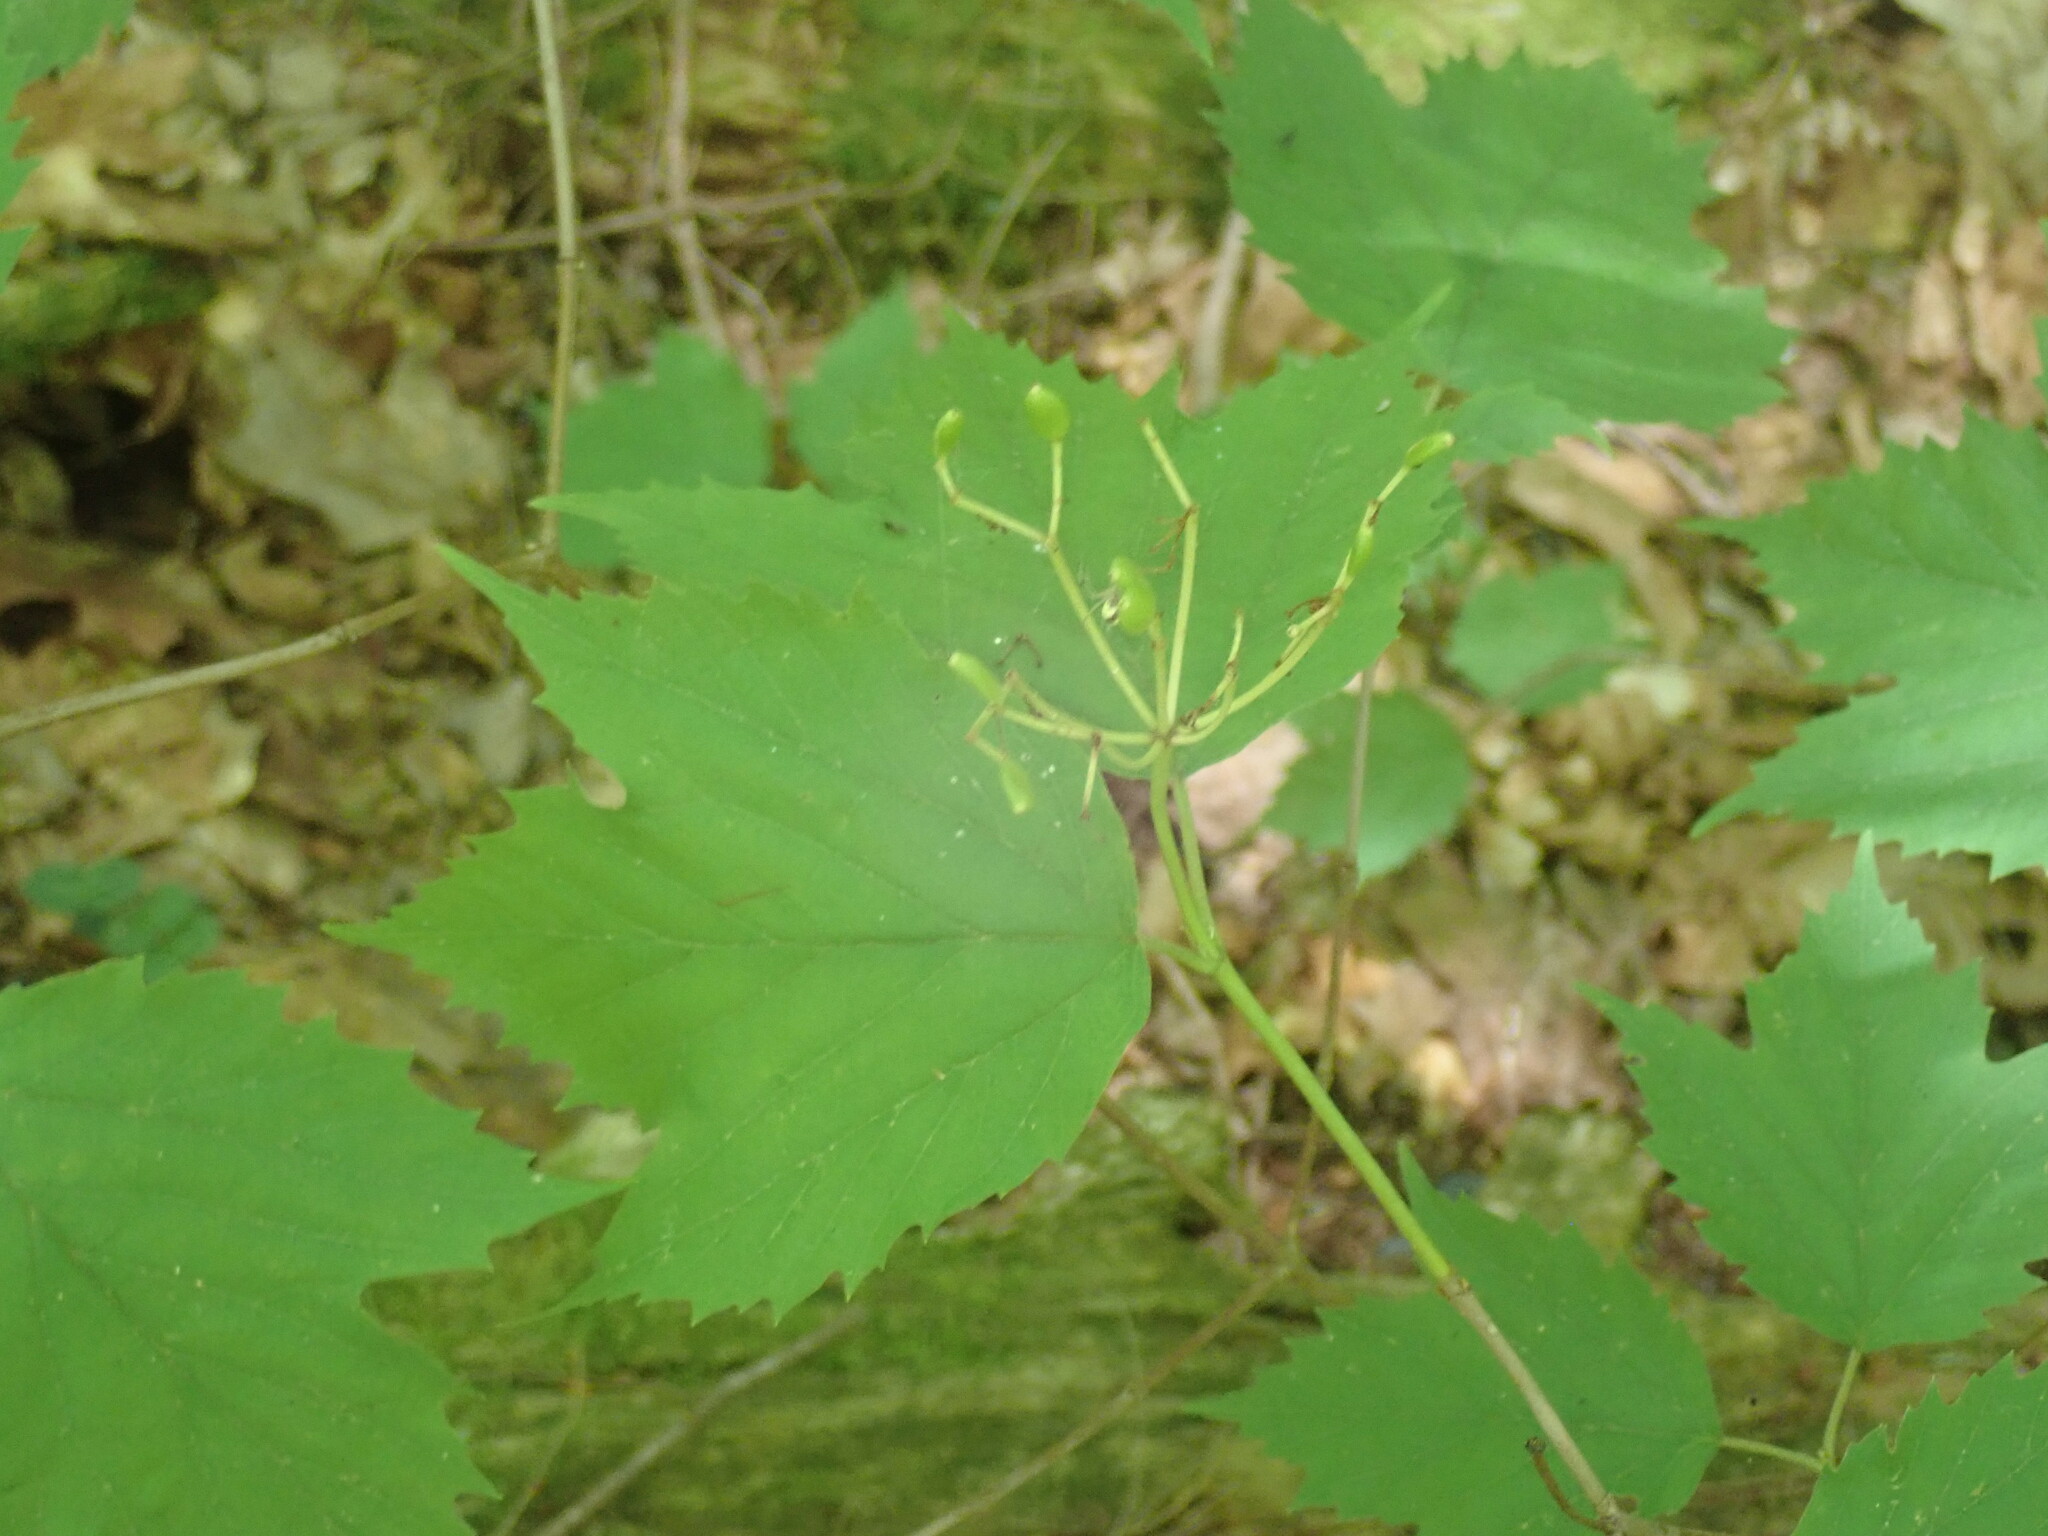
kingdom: Plantae
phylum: Tracheophyta
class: Magnoliopsida
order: Dipsacales
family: Viburnaceae
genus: Viburnum
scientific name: Viburnum acerifolium
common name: Dockmackie
